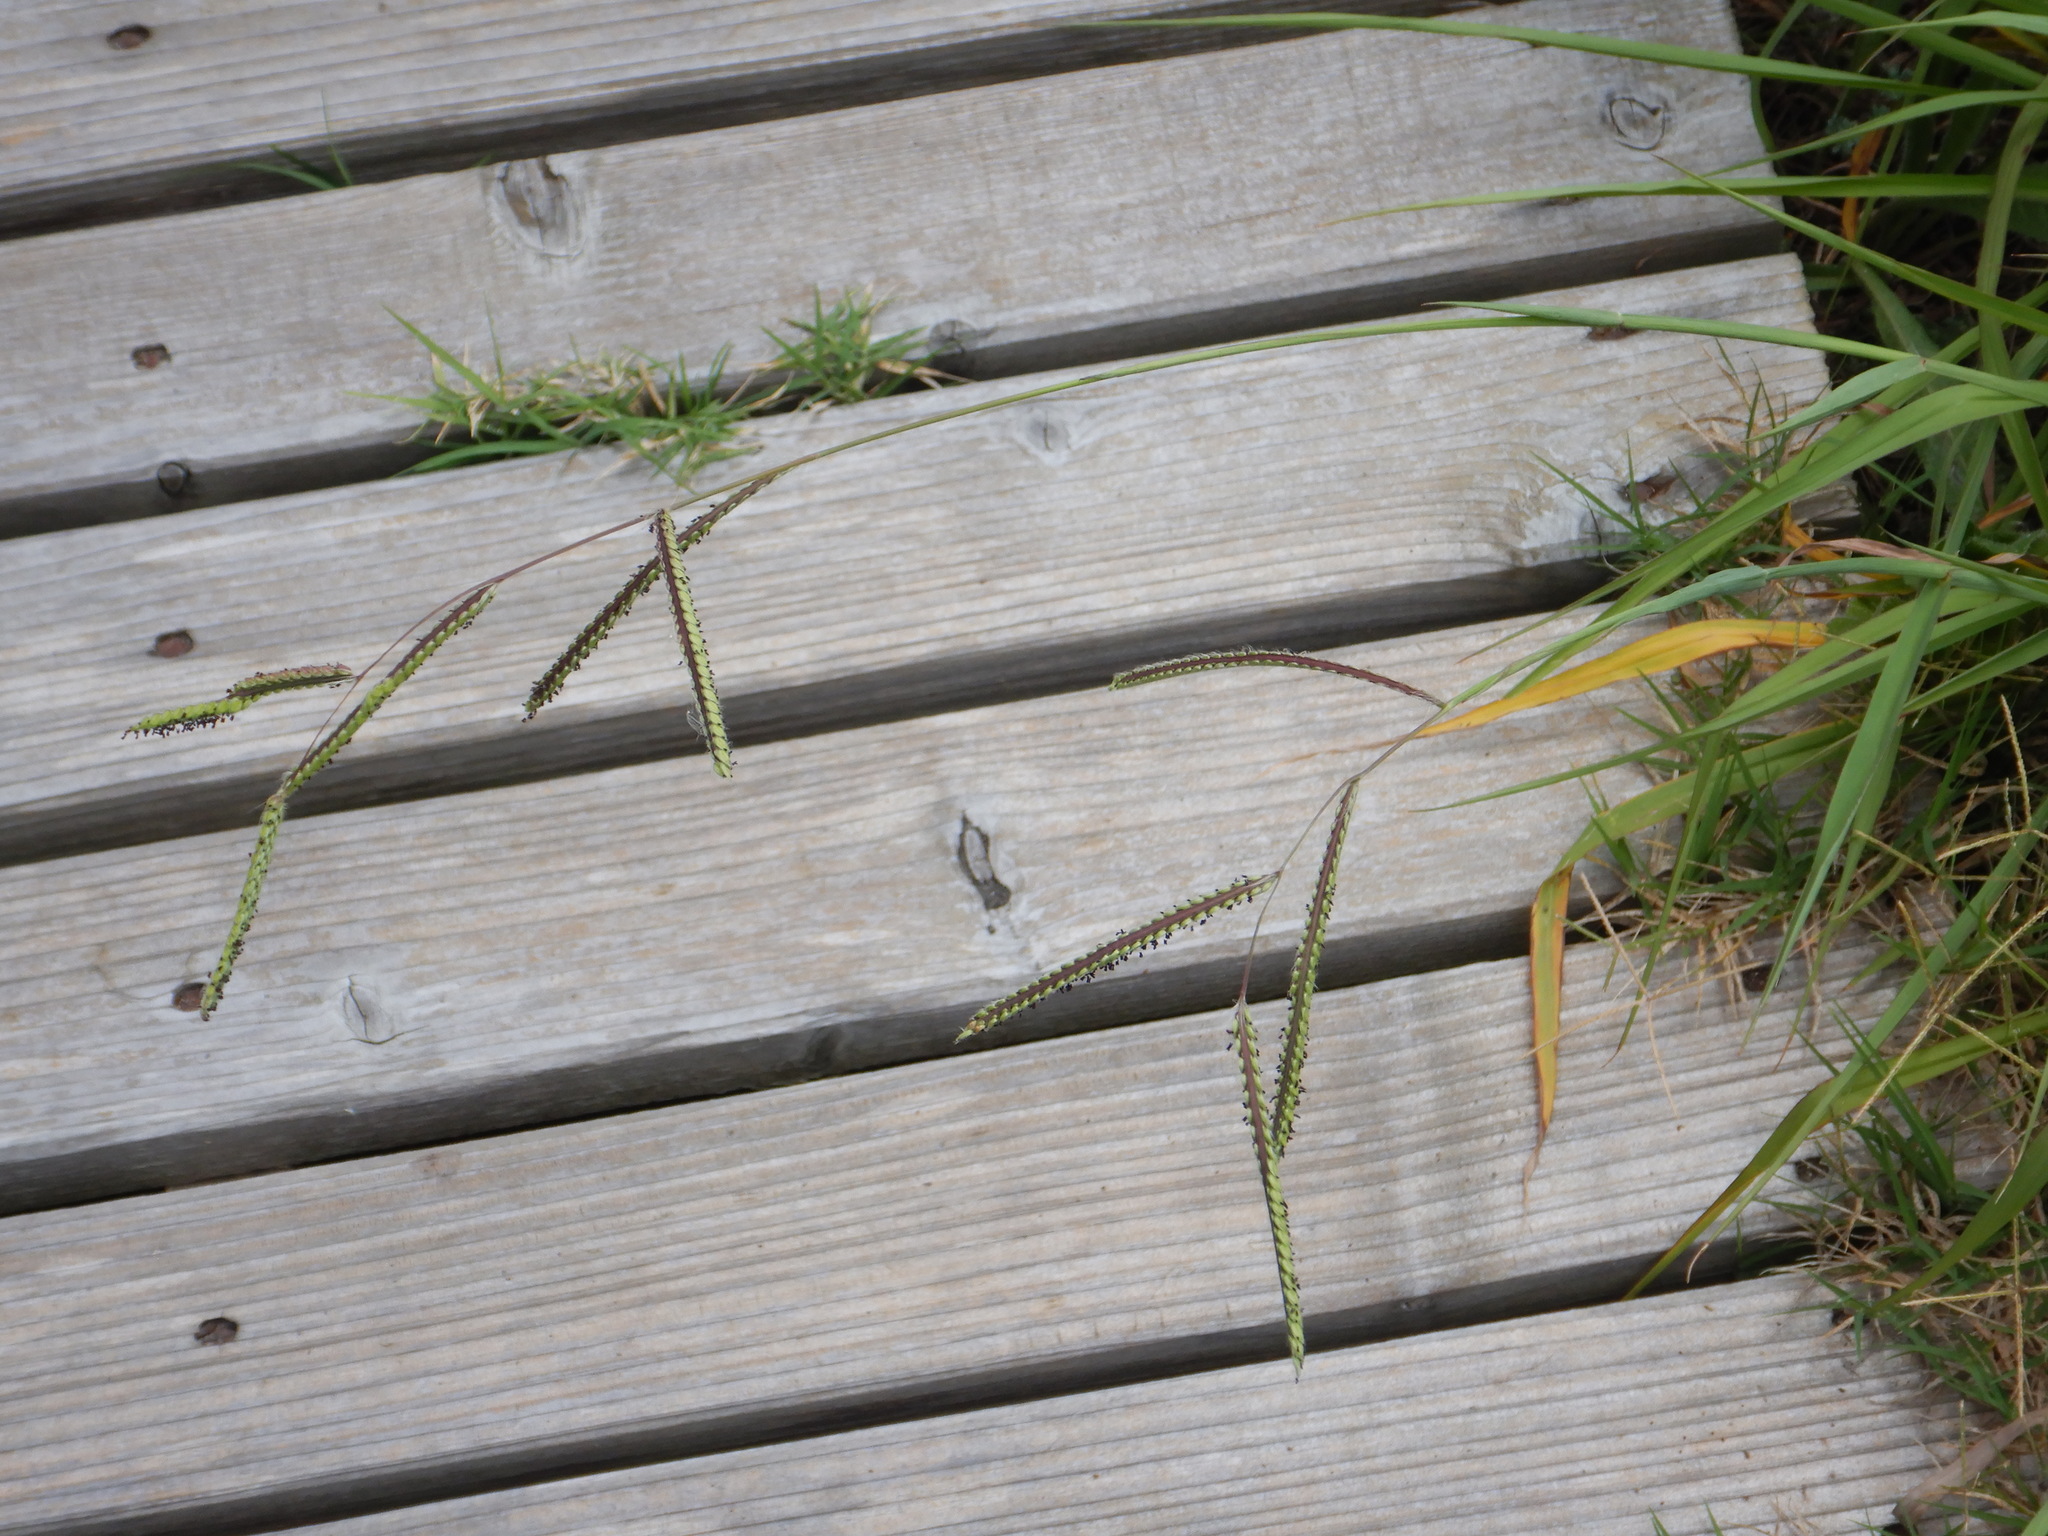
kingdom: Plantae
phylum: Tracheophyta
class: Liliopsida
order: Poales
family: Poaceae
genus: Paspalum
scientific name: Paspalum dilatatum
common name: Dallisgrass
